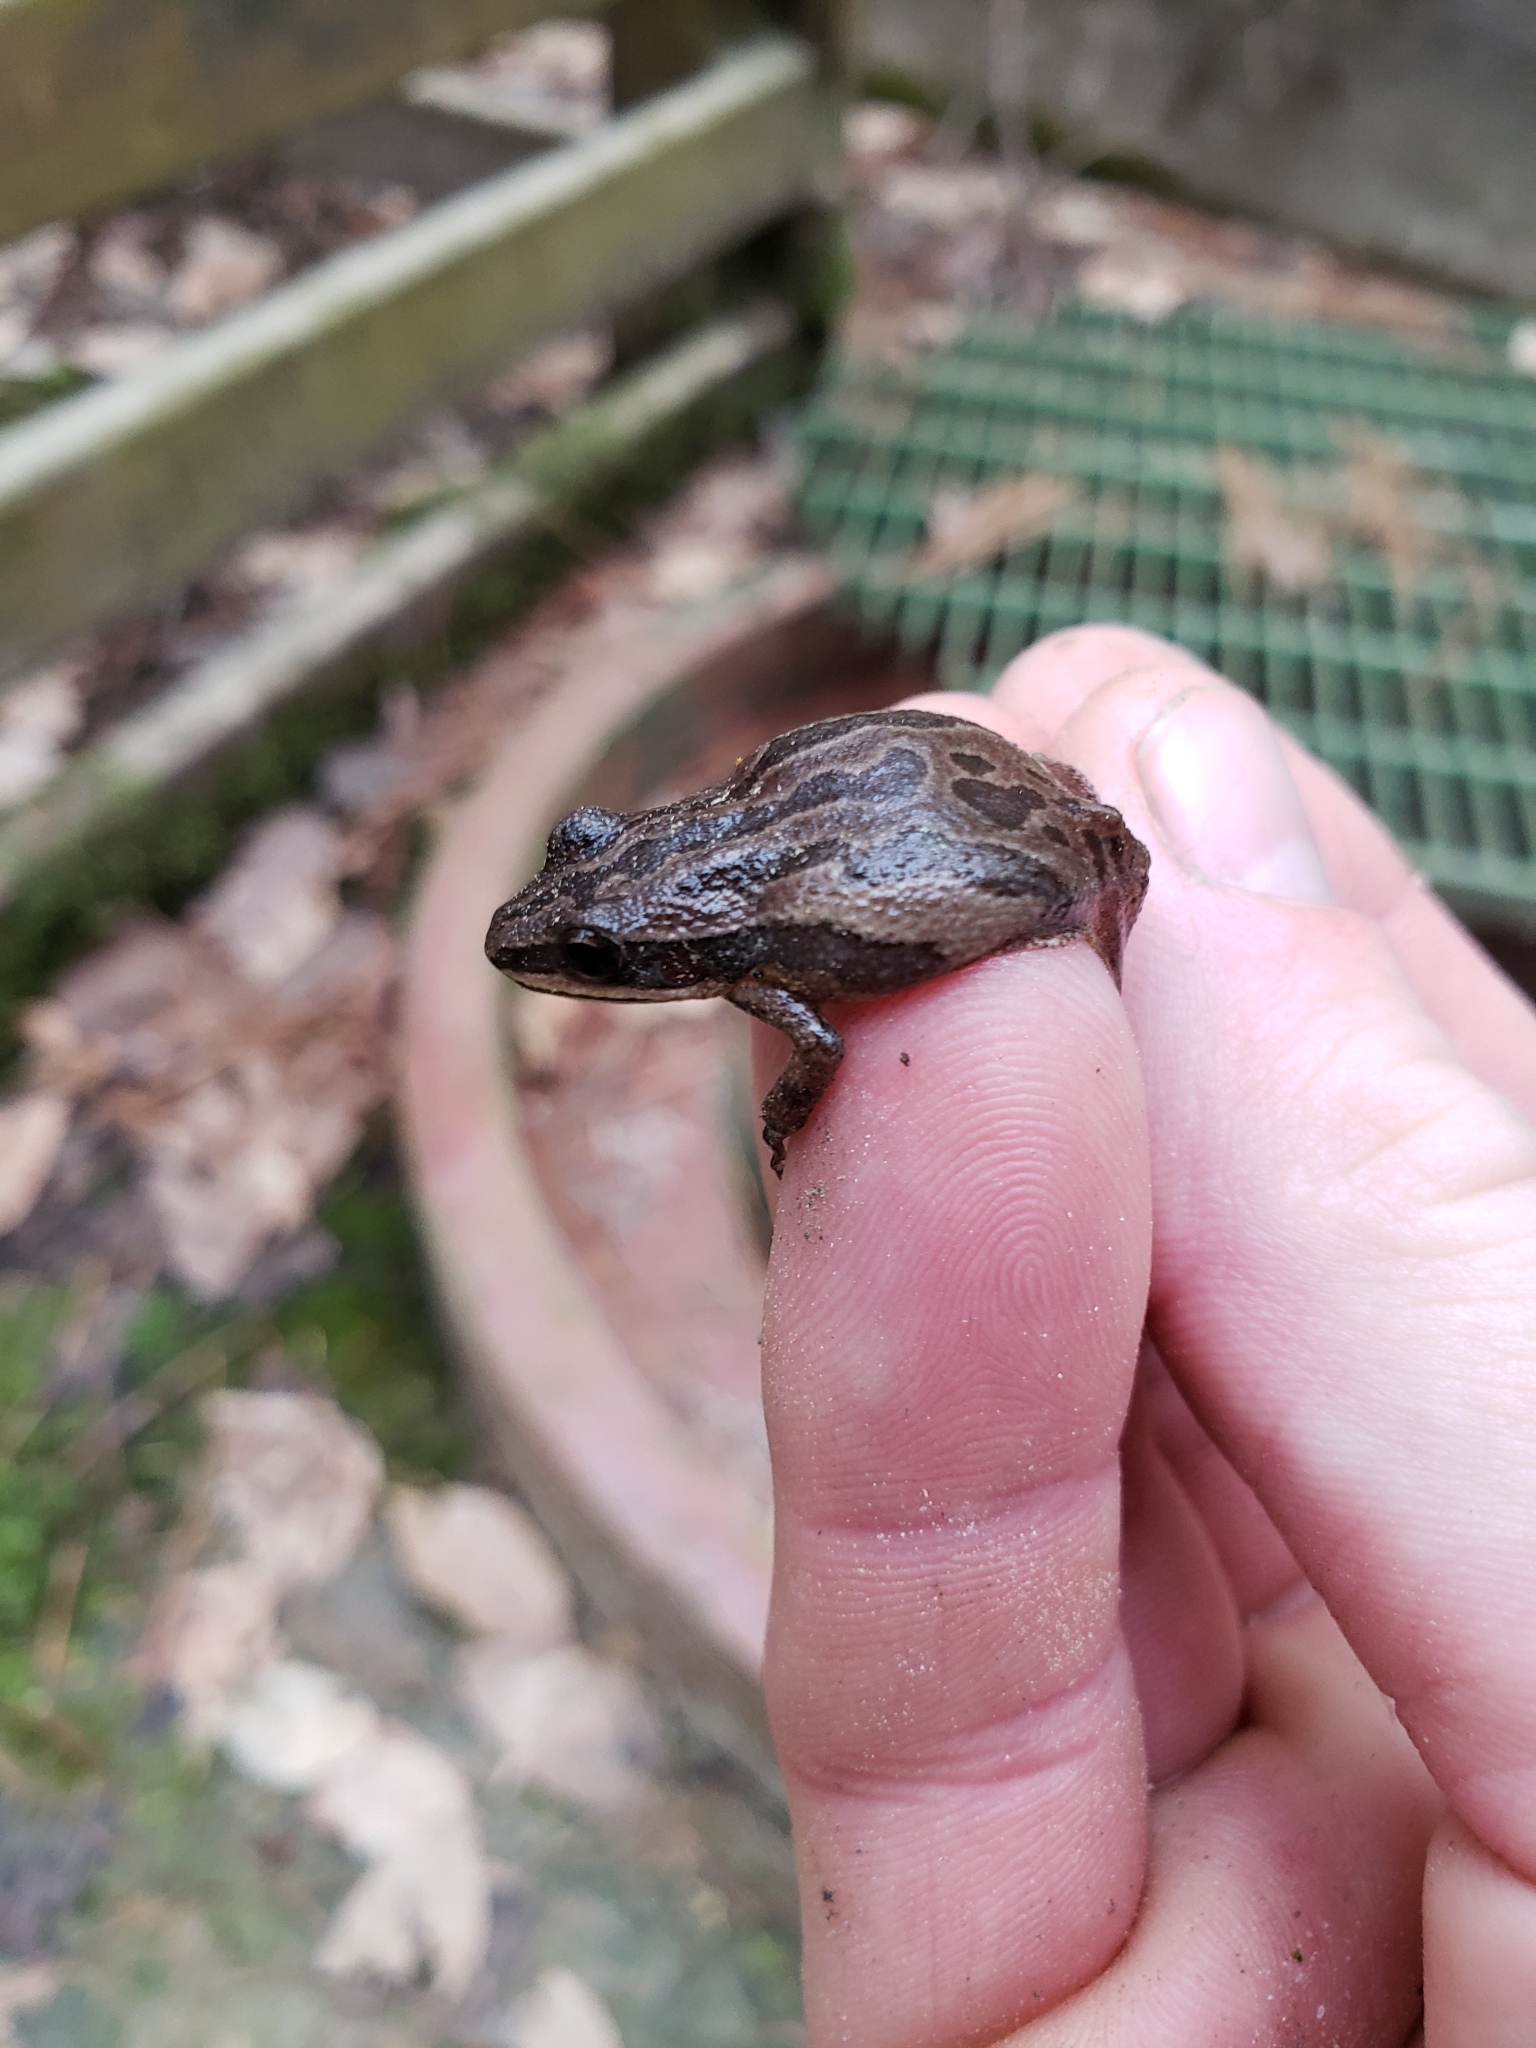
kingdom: Animalia
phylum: Chordata
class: Amphibia
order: Anura
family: Hylidae
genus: Pseudacris
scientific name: Pseudacris fouquettei
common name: Cajun chorus frog
